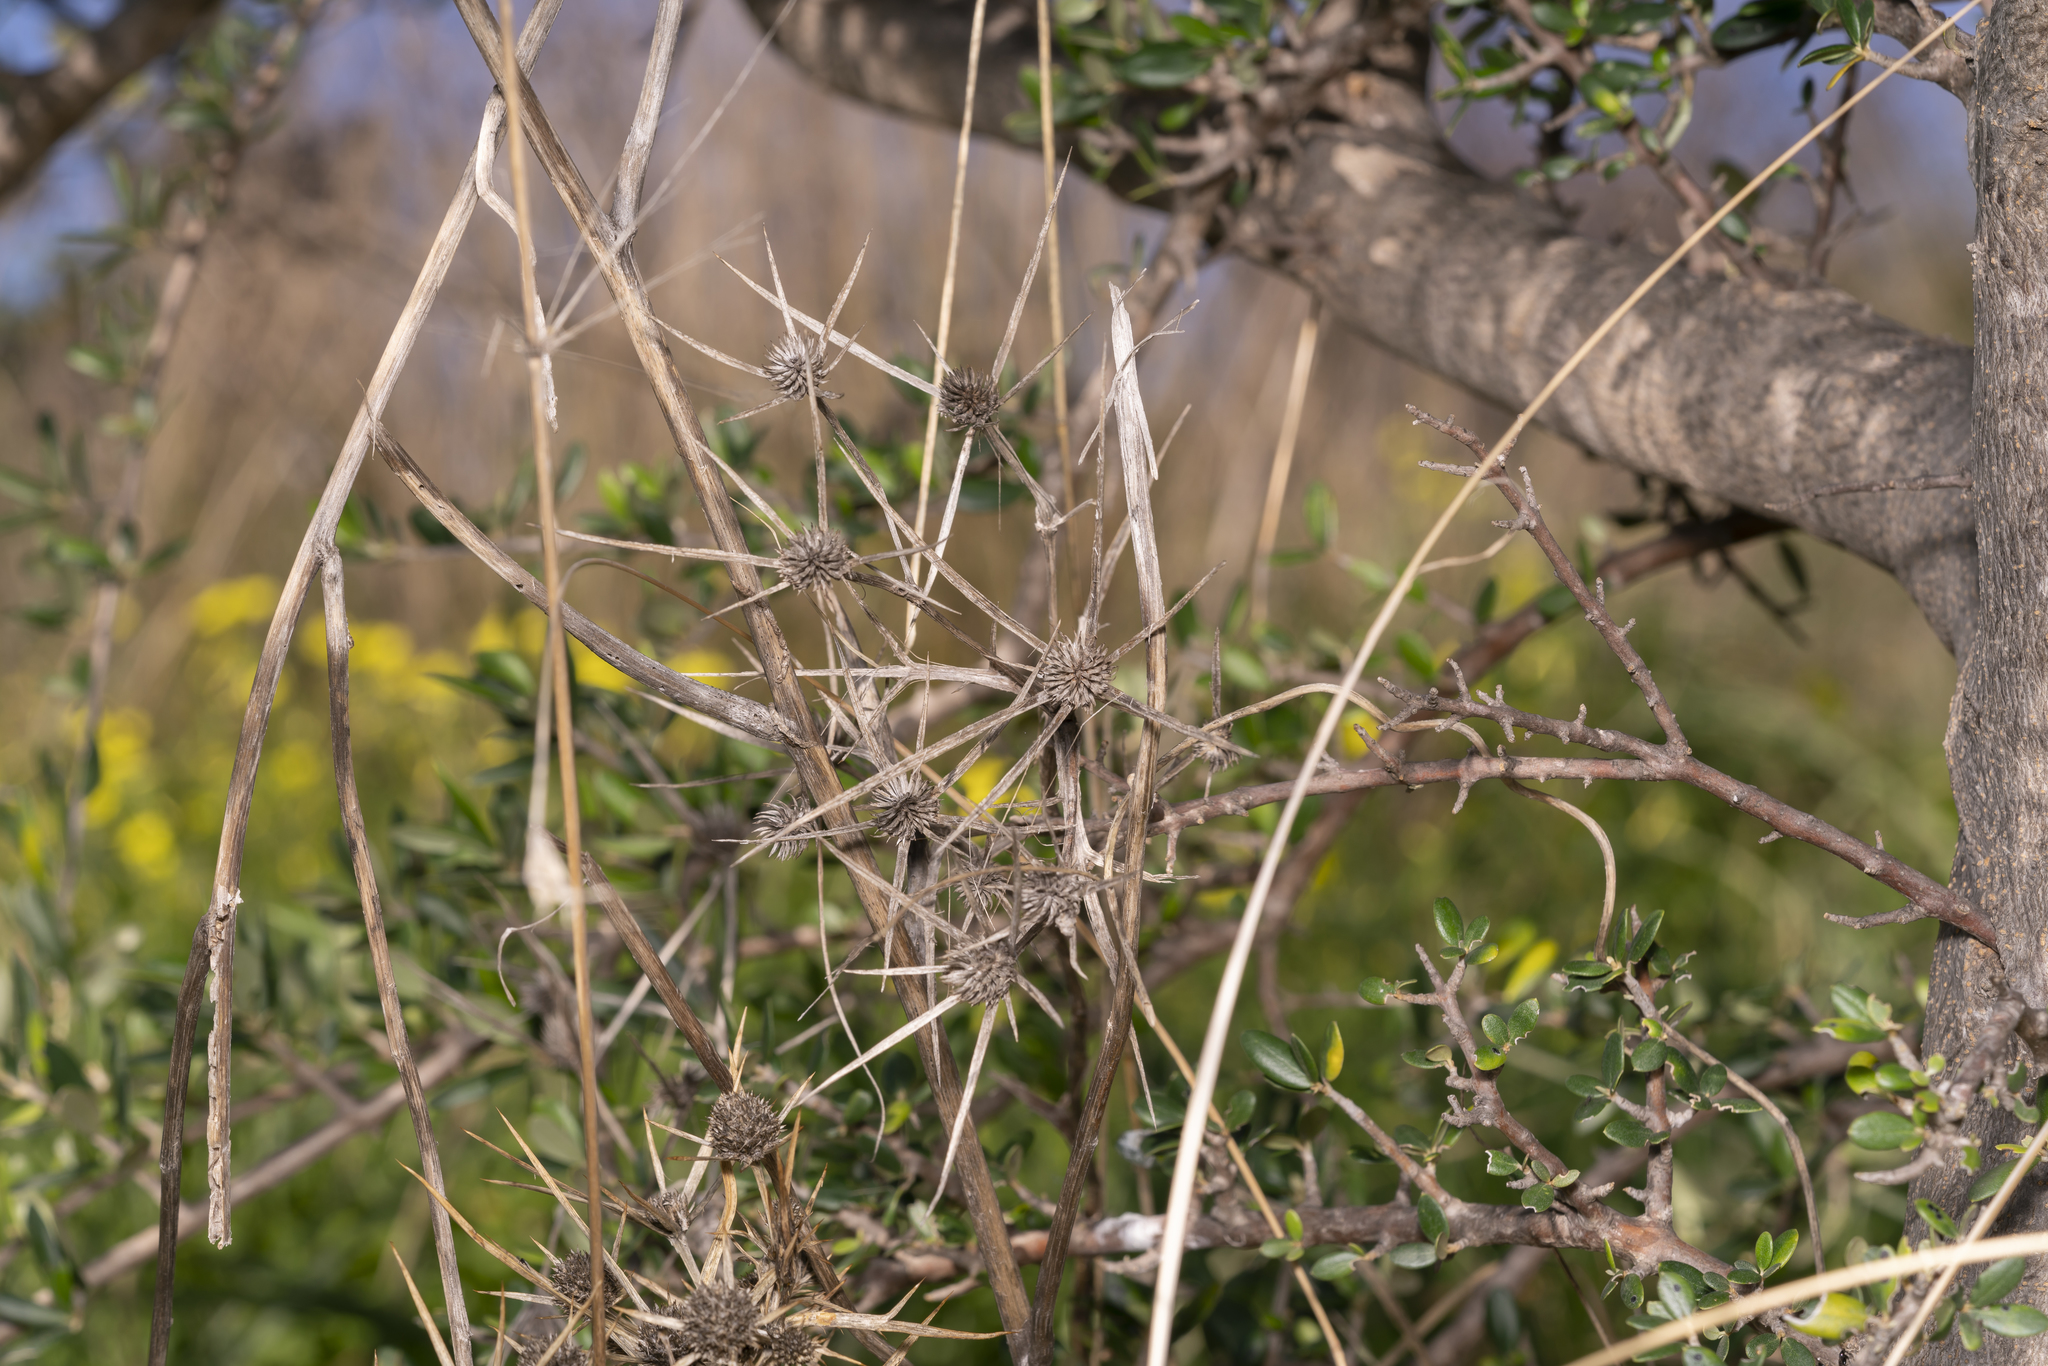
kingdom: Plantae
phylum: Tracheophyta
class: Magnoliopsida
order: Apiales
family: Apiaceae
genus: Eryngium
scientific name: Eryngium
